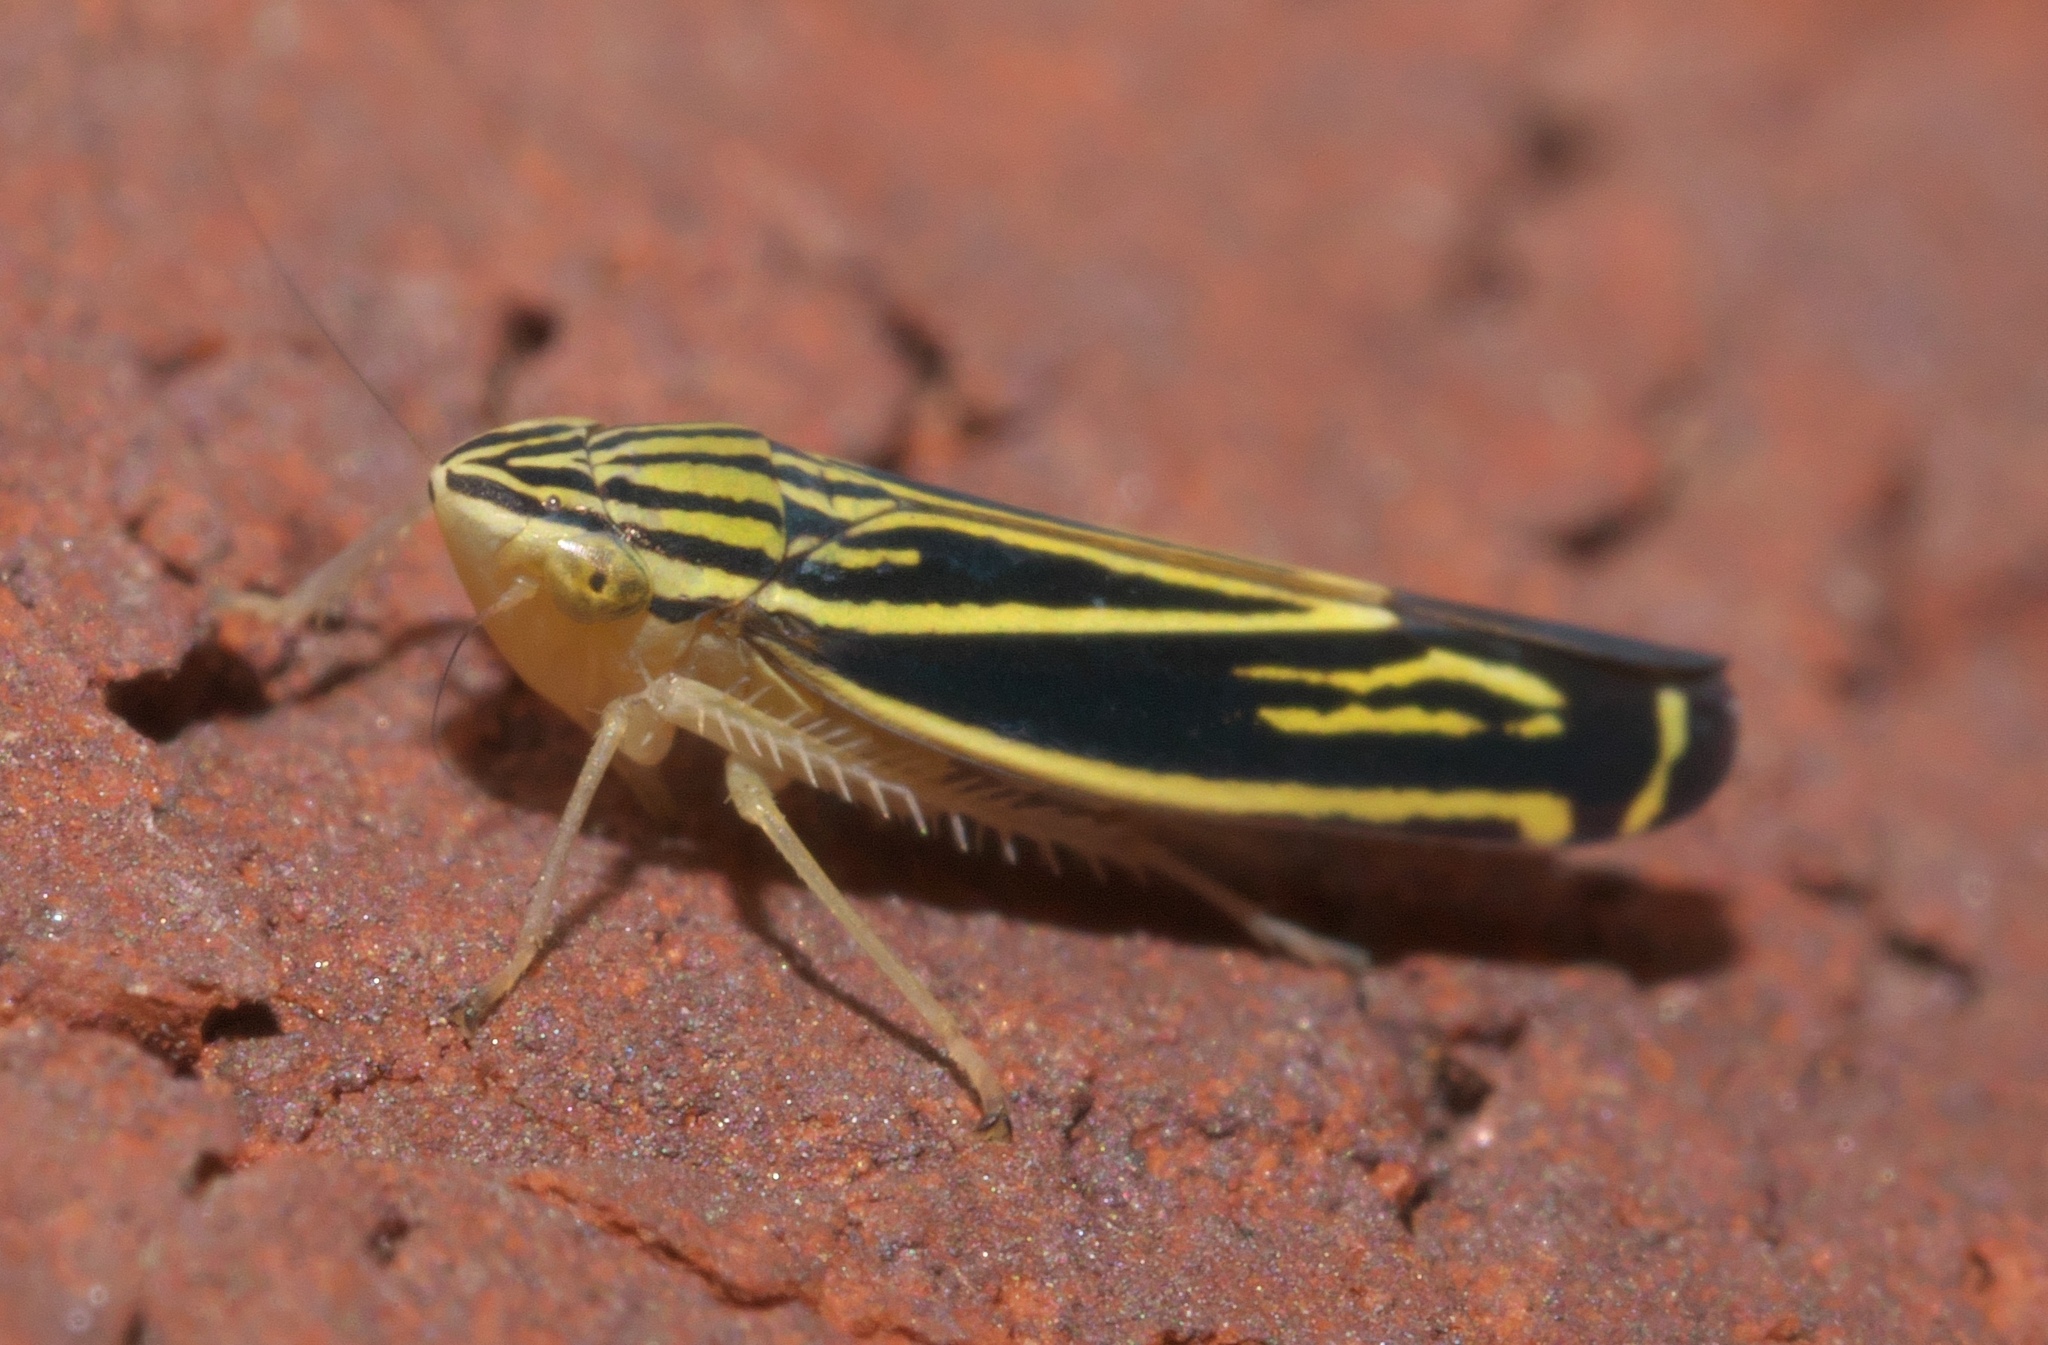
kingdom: Animalia
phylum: Arthropoda
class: Insecta
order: Hemiptera
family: Cicadellidae
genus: Sibovia
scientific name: Sibovia occatoria
